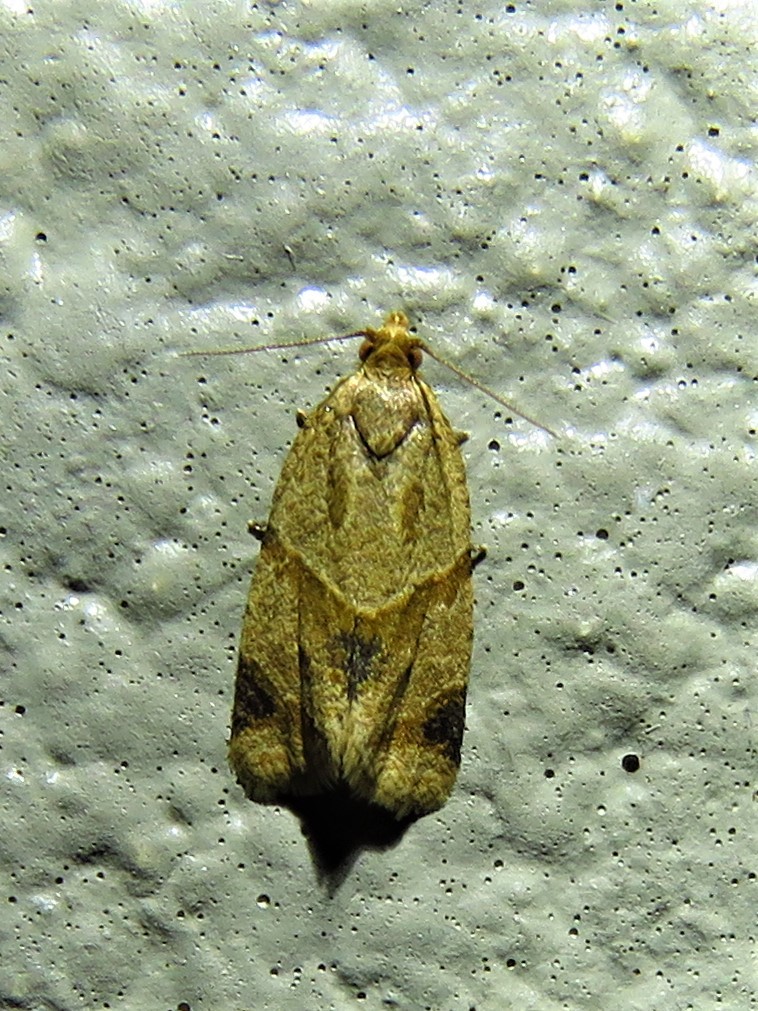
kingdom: Animalia
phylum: Arthropoda
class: Insecta
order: Lepidoptera
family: Tortricidae
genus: Clepsis
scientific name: Clepsis peritana
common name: Garden tortrix
